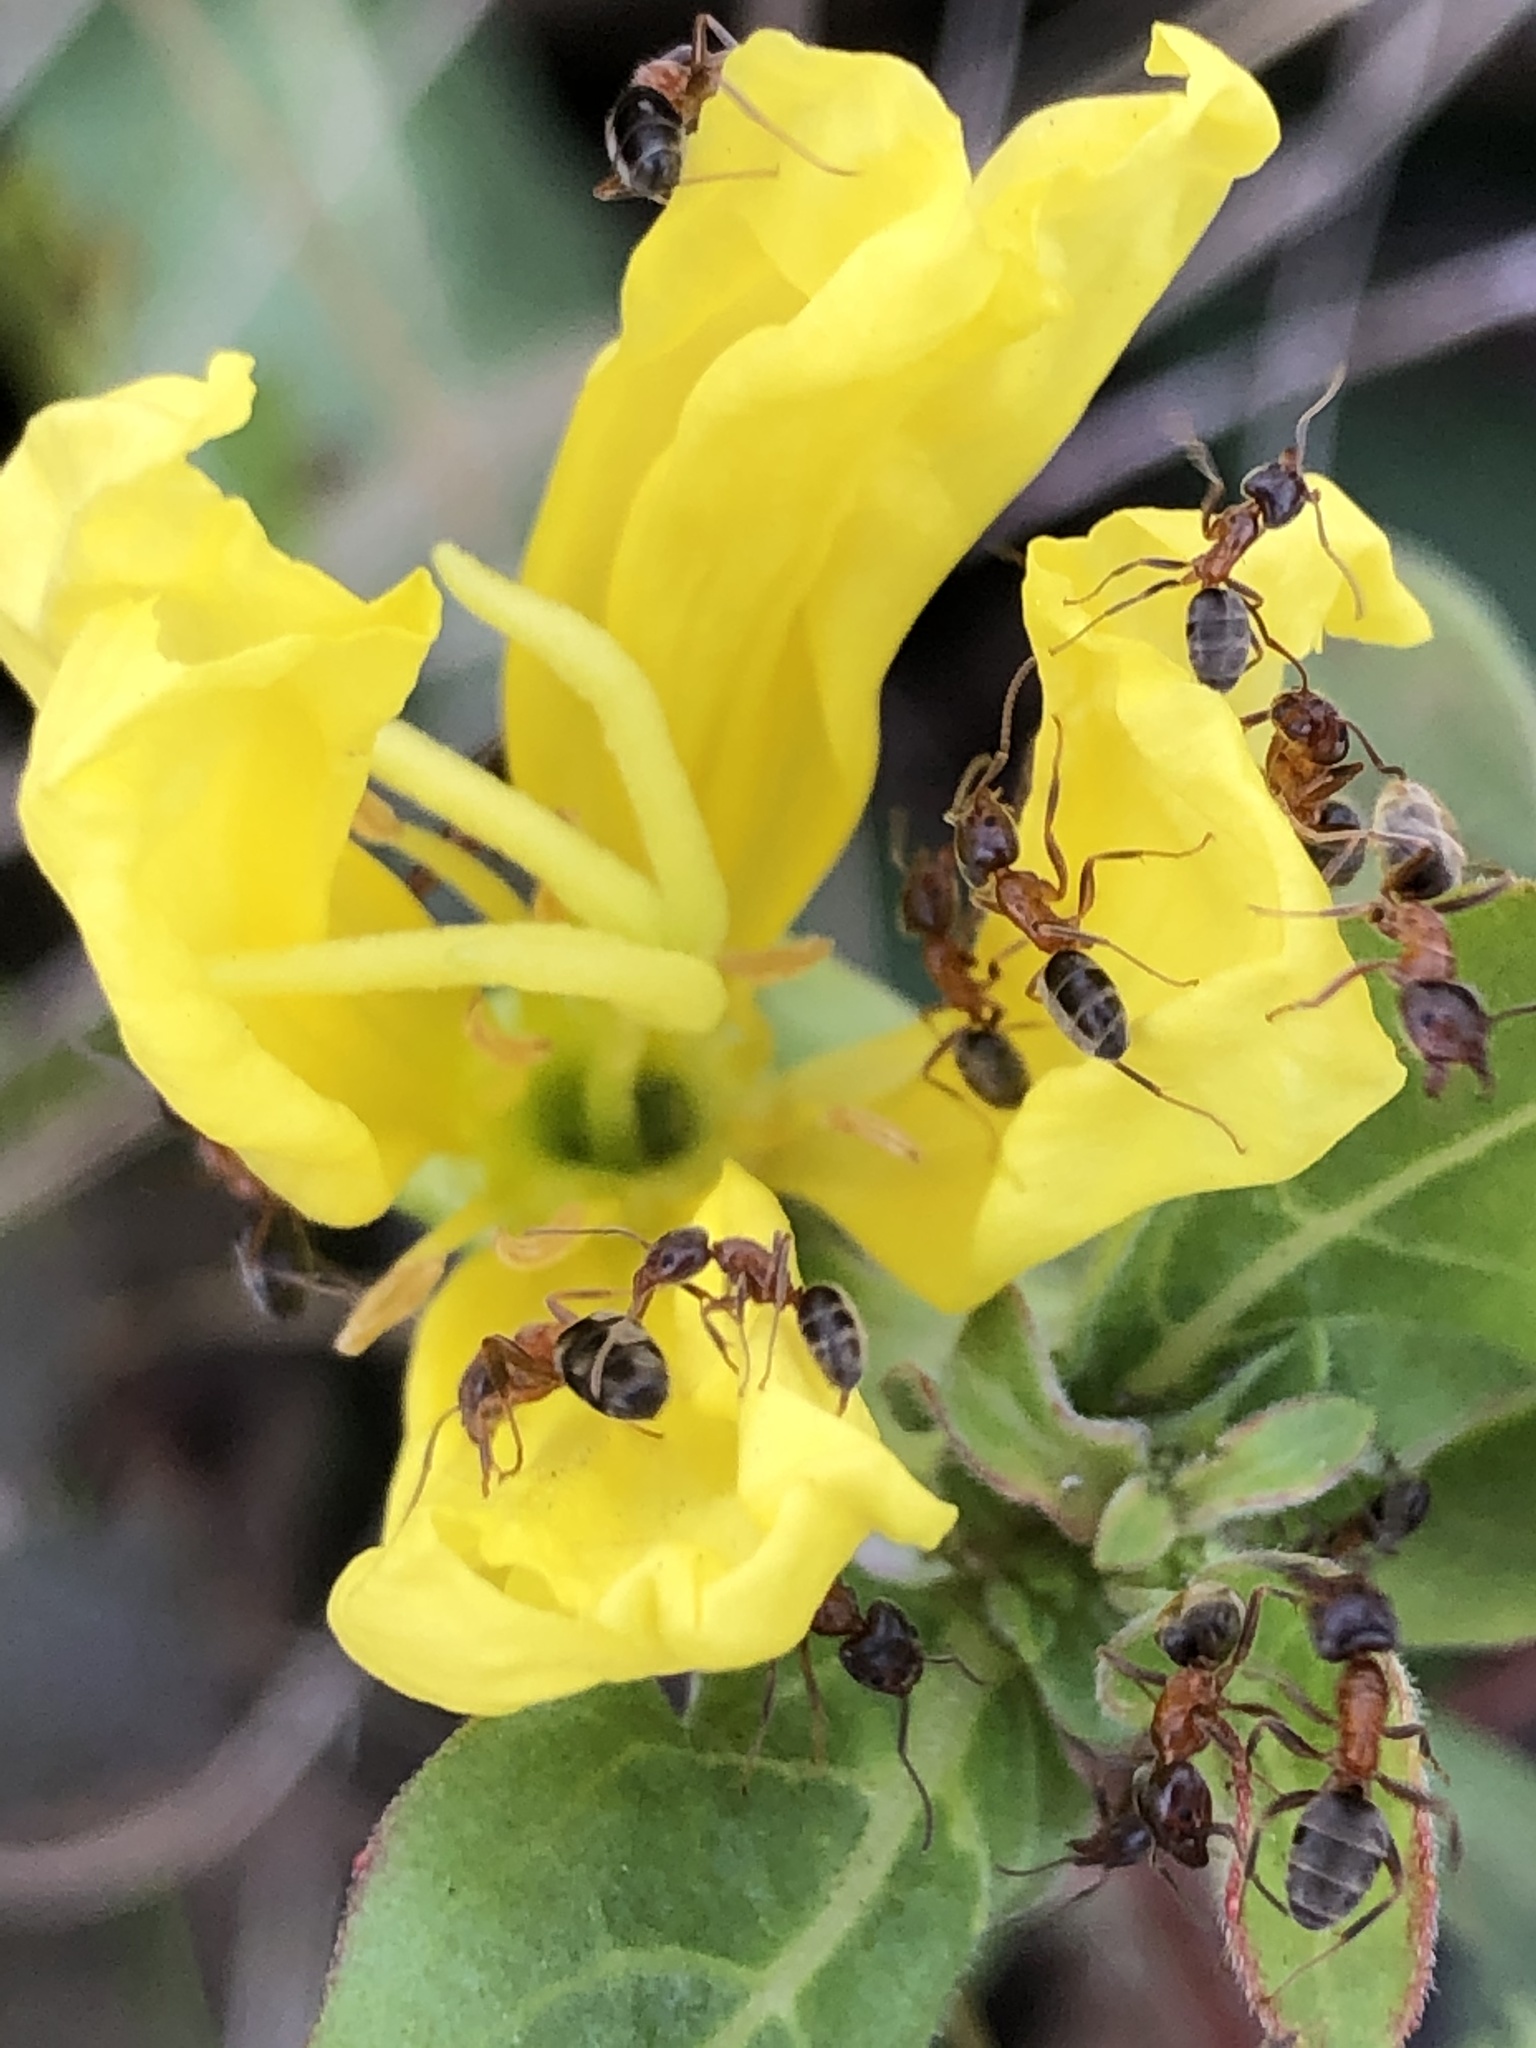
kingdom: Animalia
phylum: Arthropoda
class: Insecta
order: Hymenoptera
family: Formicidae
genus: Liometopum
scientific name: Liometopum occidentale
